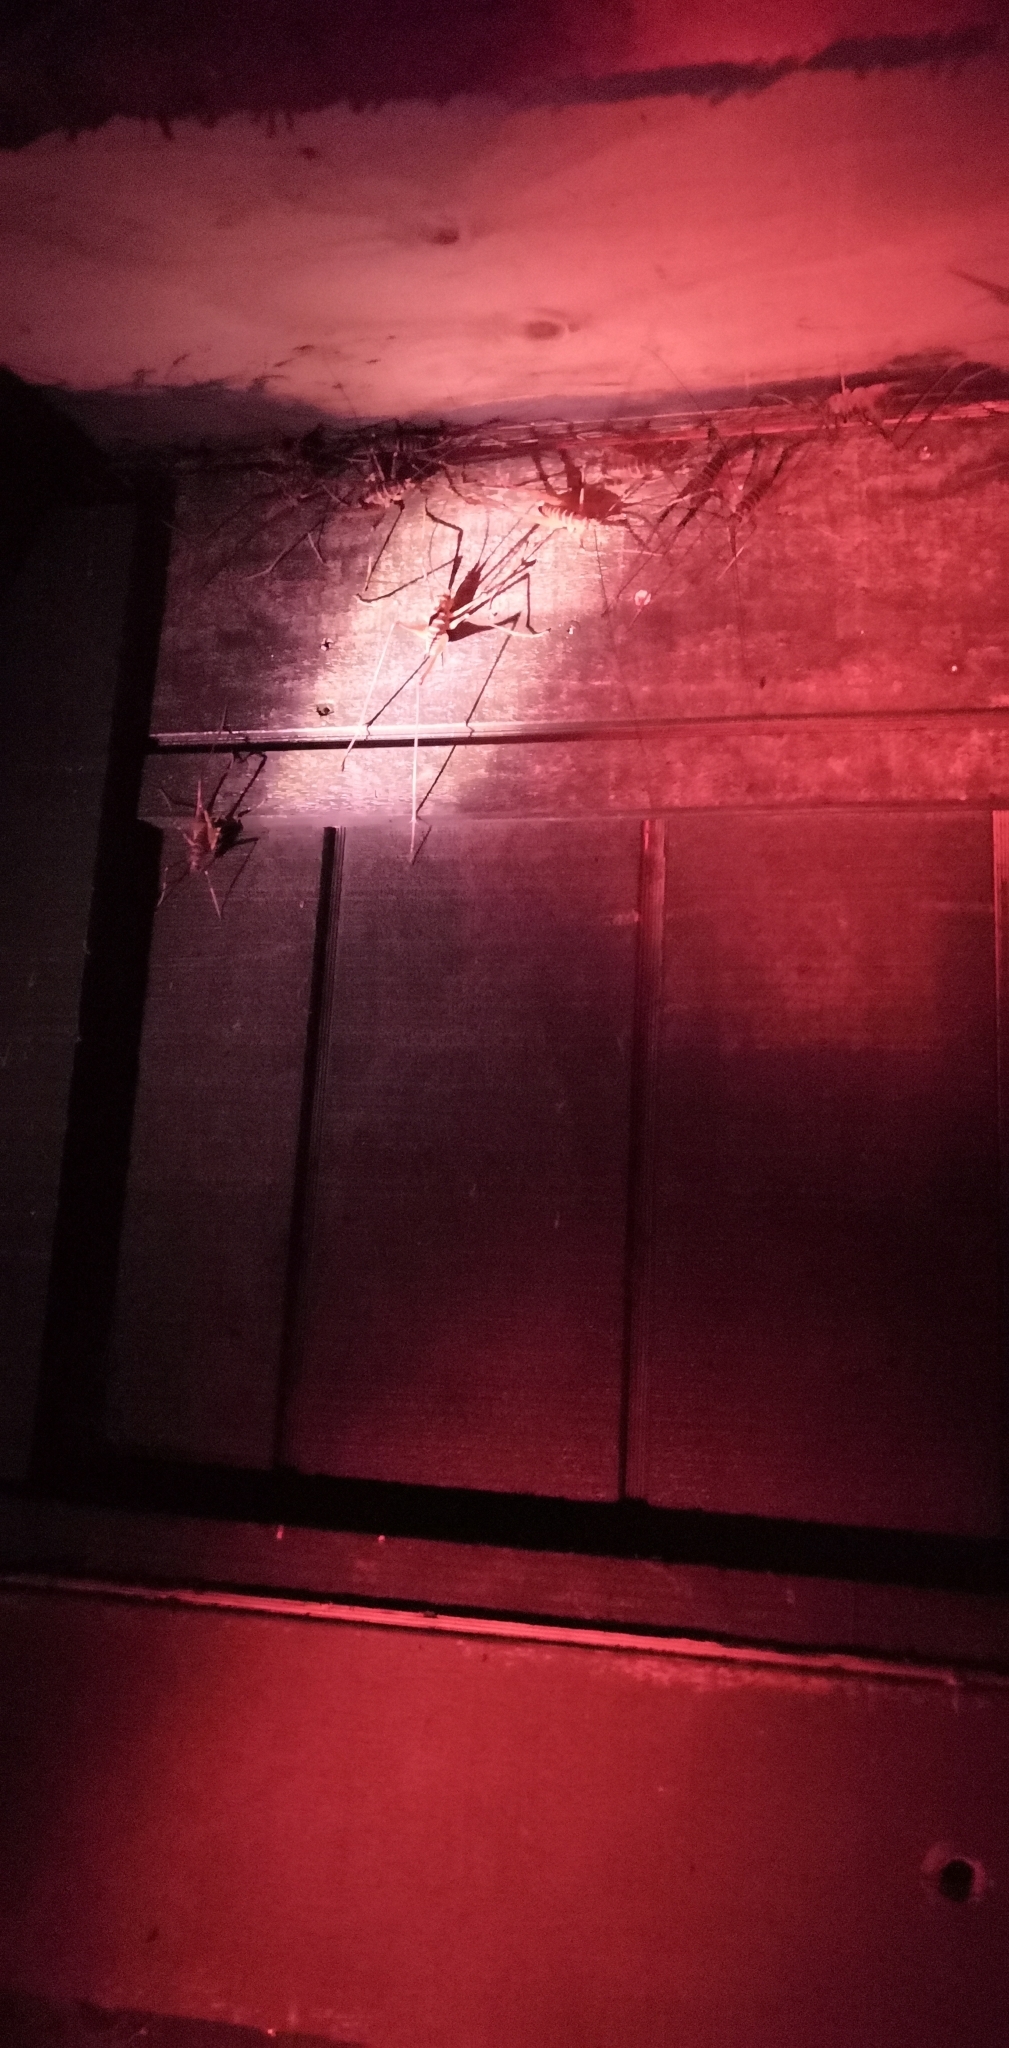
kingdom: Animalia
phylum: Arthropoda
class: Insecta
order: Orthoptera
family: Rhaphidophoridae
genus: Pachyrhamma
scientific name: Pachyrhamma acanthocera
